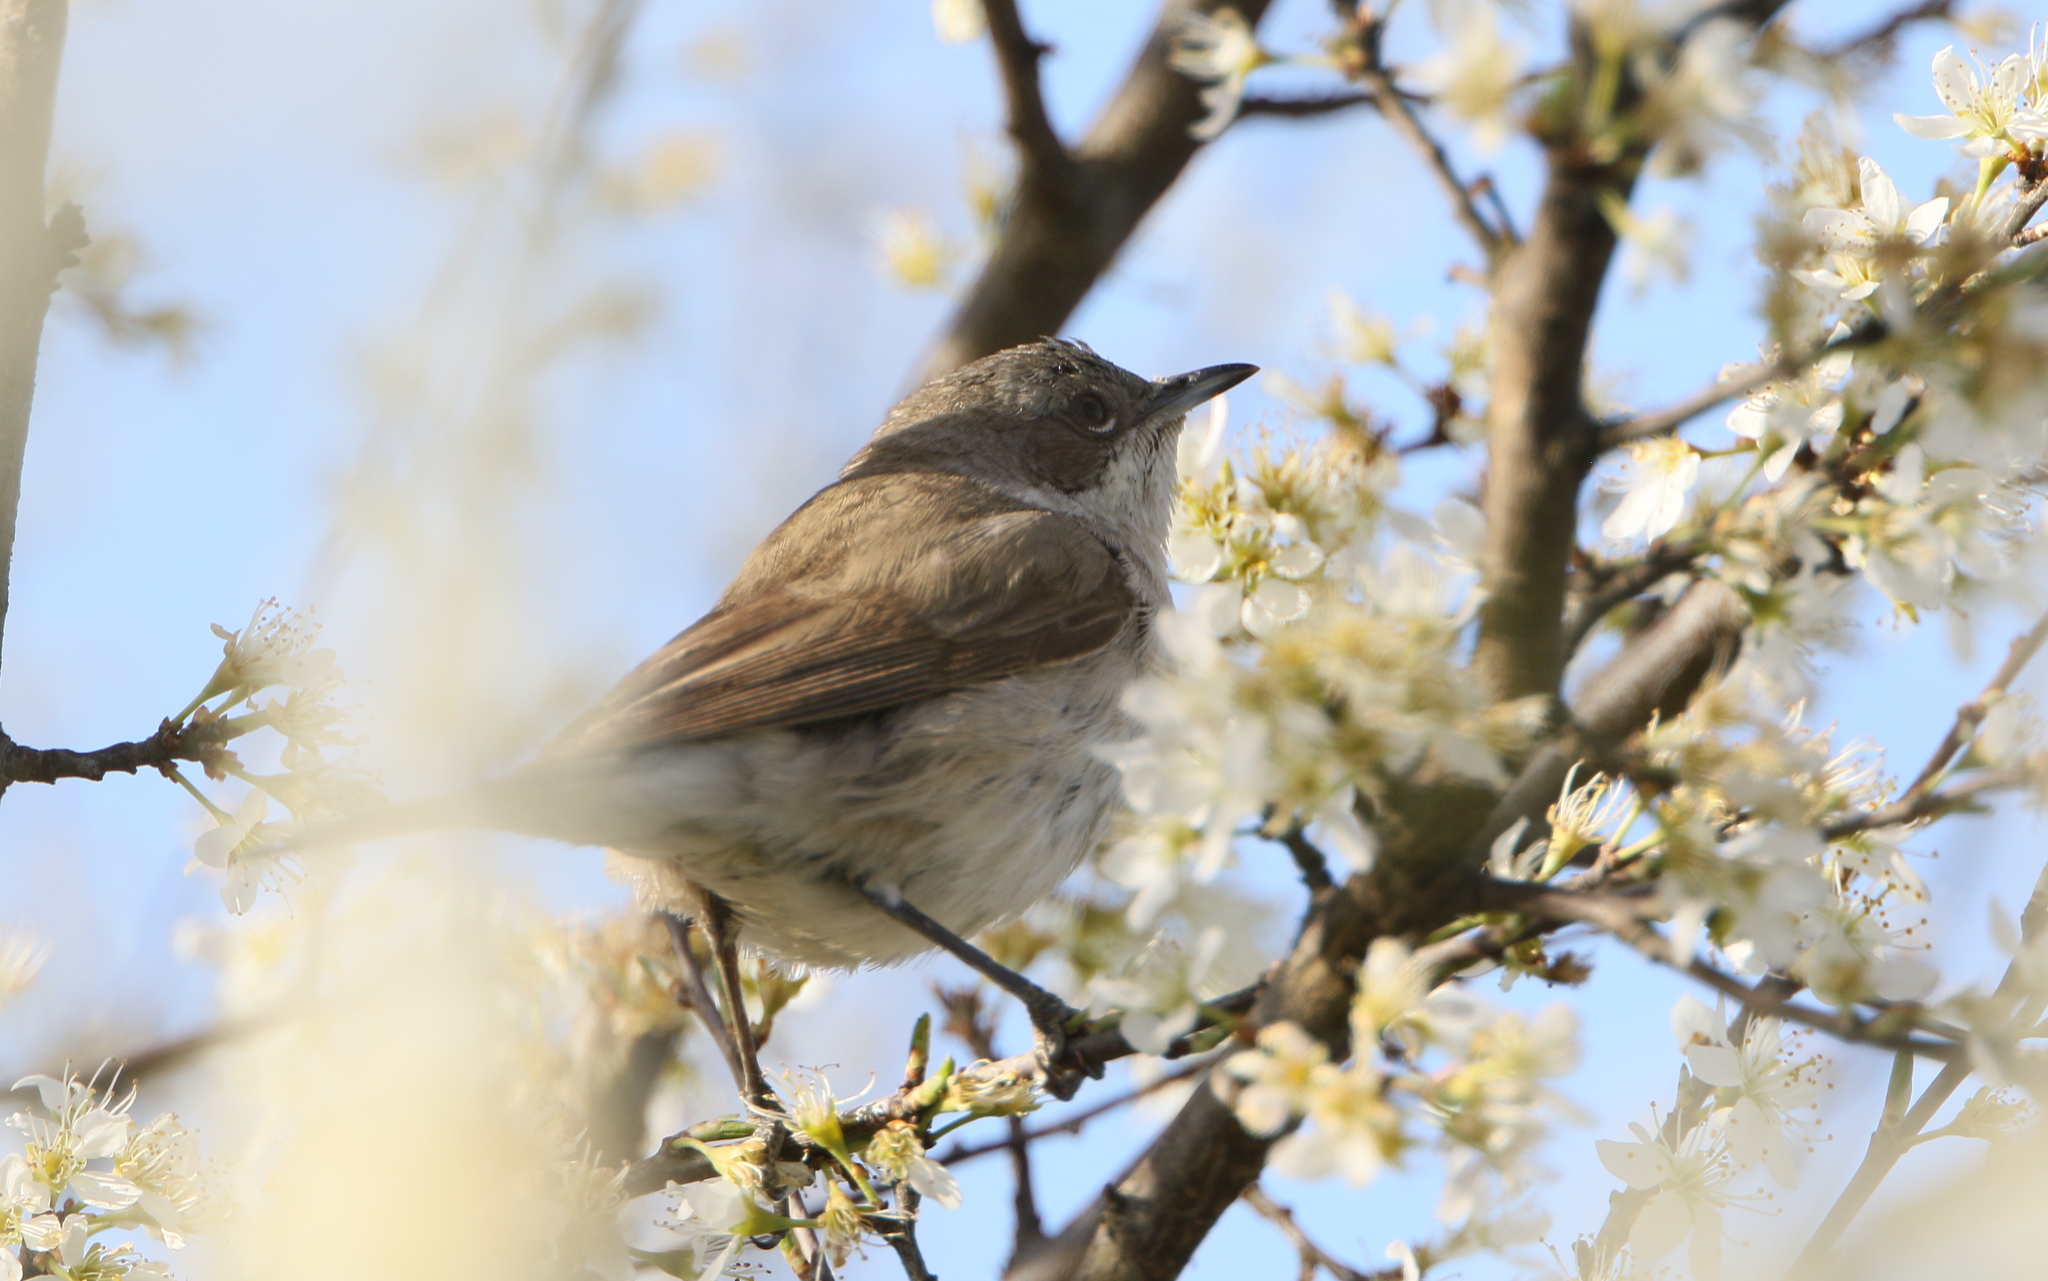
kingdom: Animalia
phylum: Chordata
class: Aves
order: Passeriformes
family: Sylviidae
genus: Sylvia
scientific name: Sylvia curruca
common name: Lesser whitethroat
